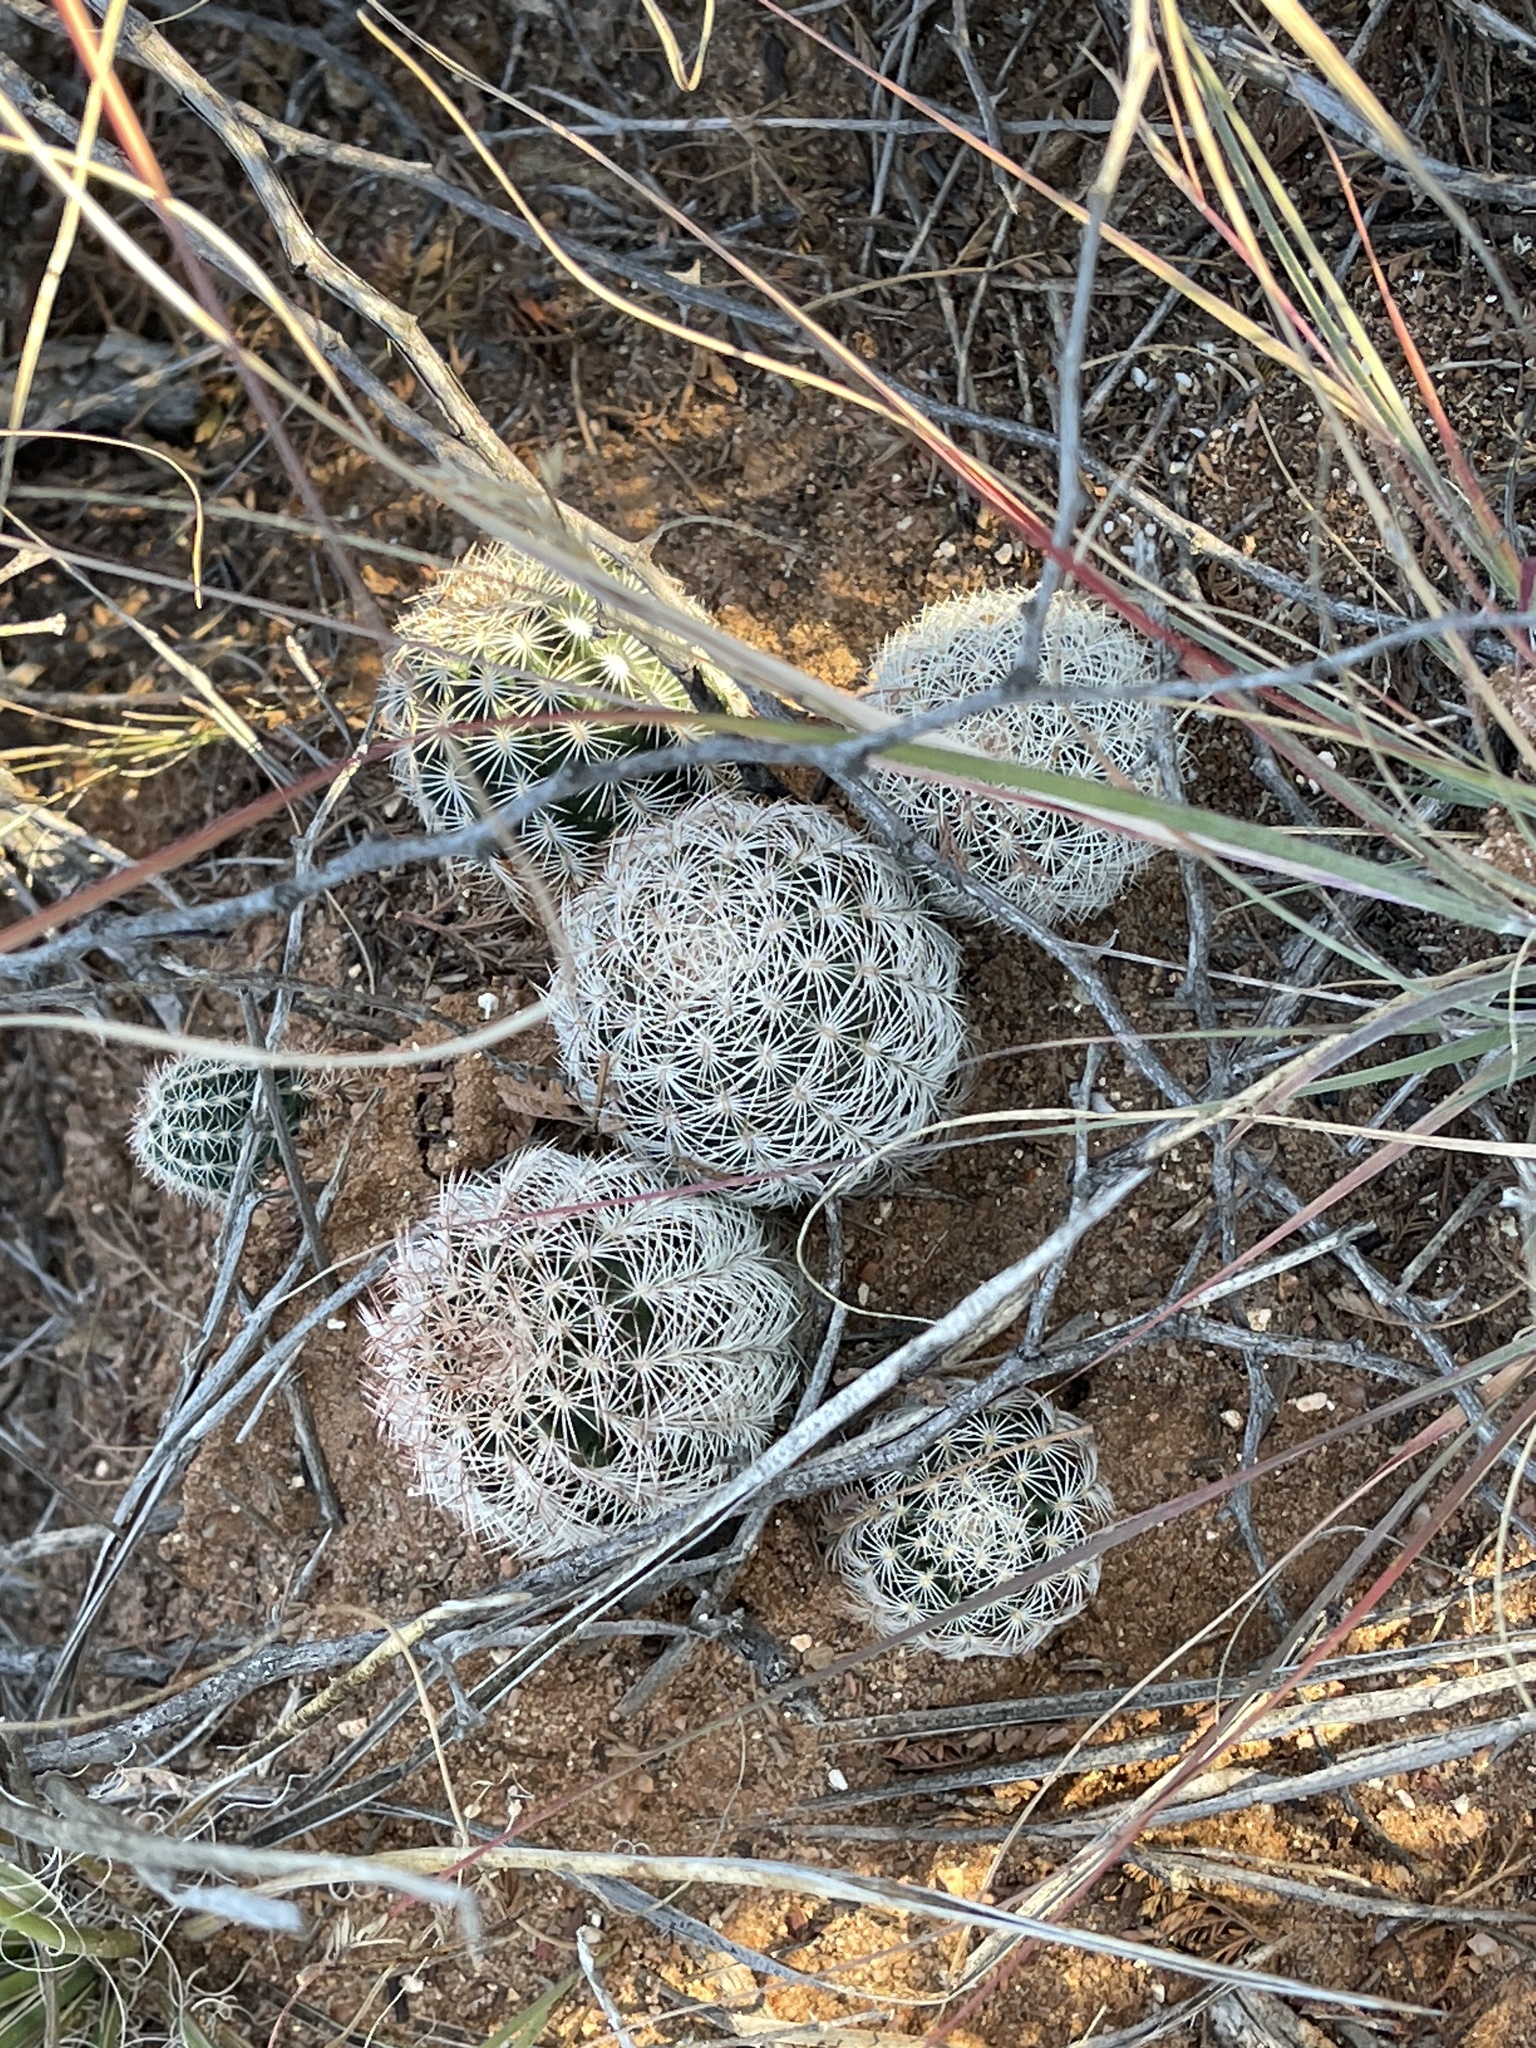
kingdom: Plantae
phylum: Tracheophyta
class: Magnoliopsida
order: Caryophyllales
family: Cactaceae
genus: Echinocereus
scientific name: Echinocereus reichenbachii
